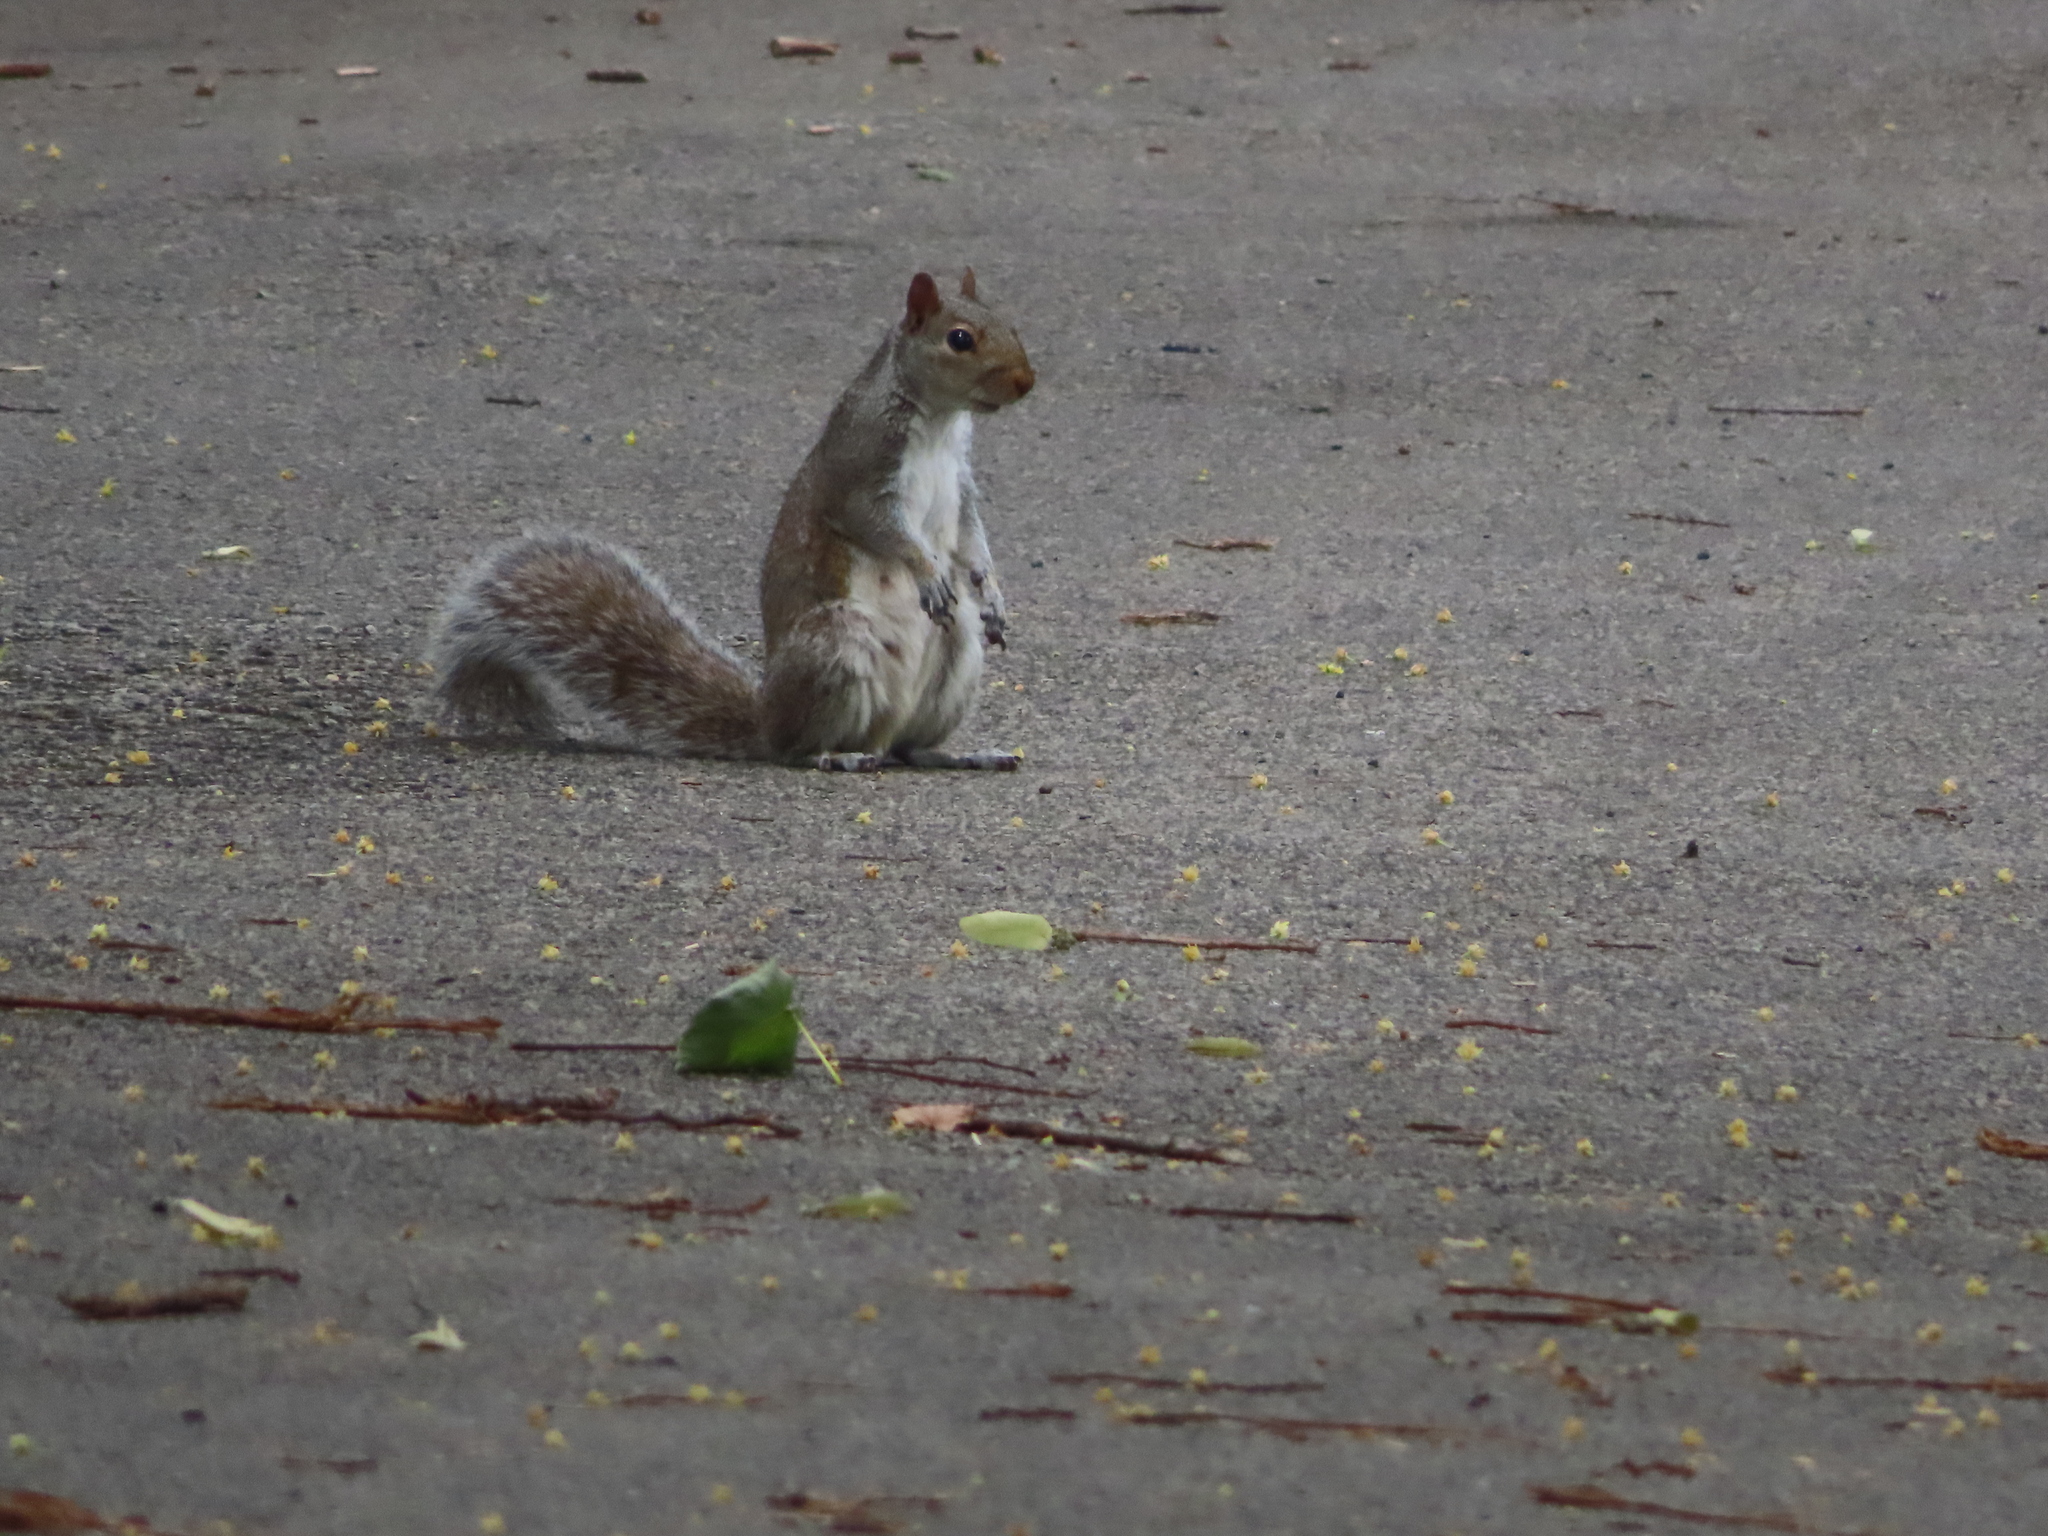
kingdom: Animalia
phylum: Chordata
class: Mammalia
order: Rodentia
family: Sciuridae
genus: Sciurus
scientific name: Sciurus carolinensis
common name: Eastern gray squirrel
